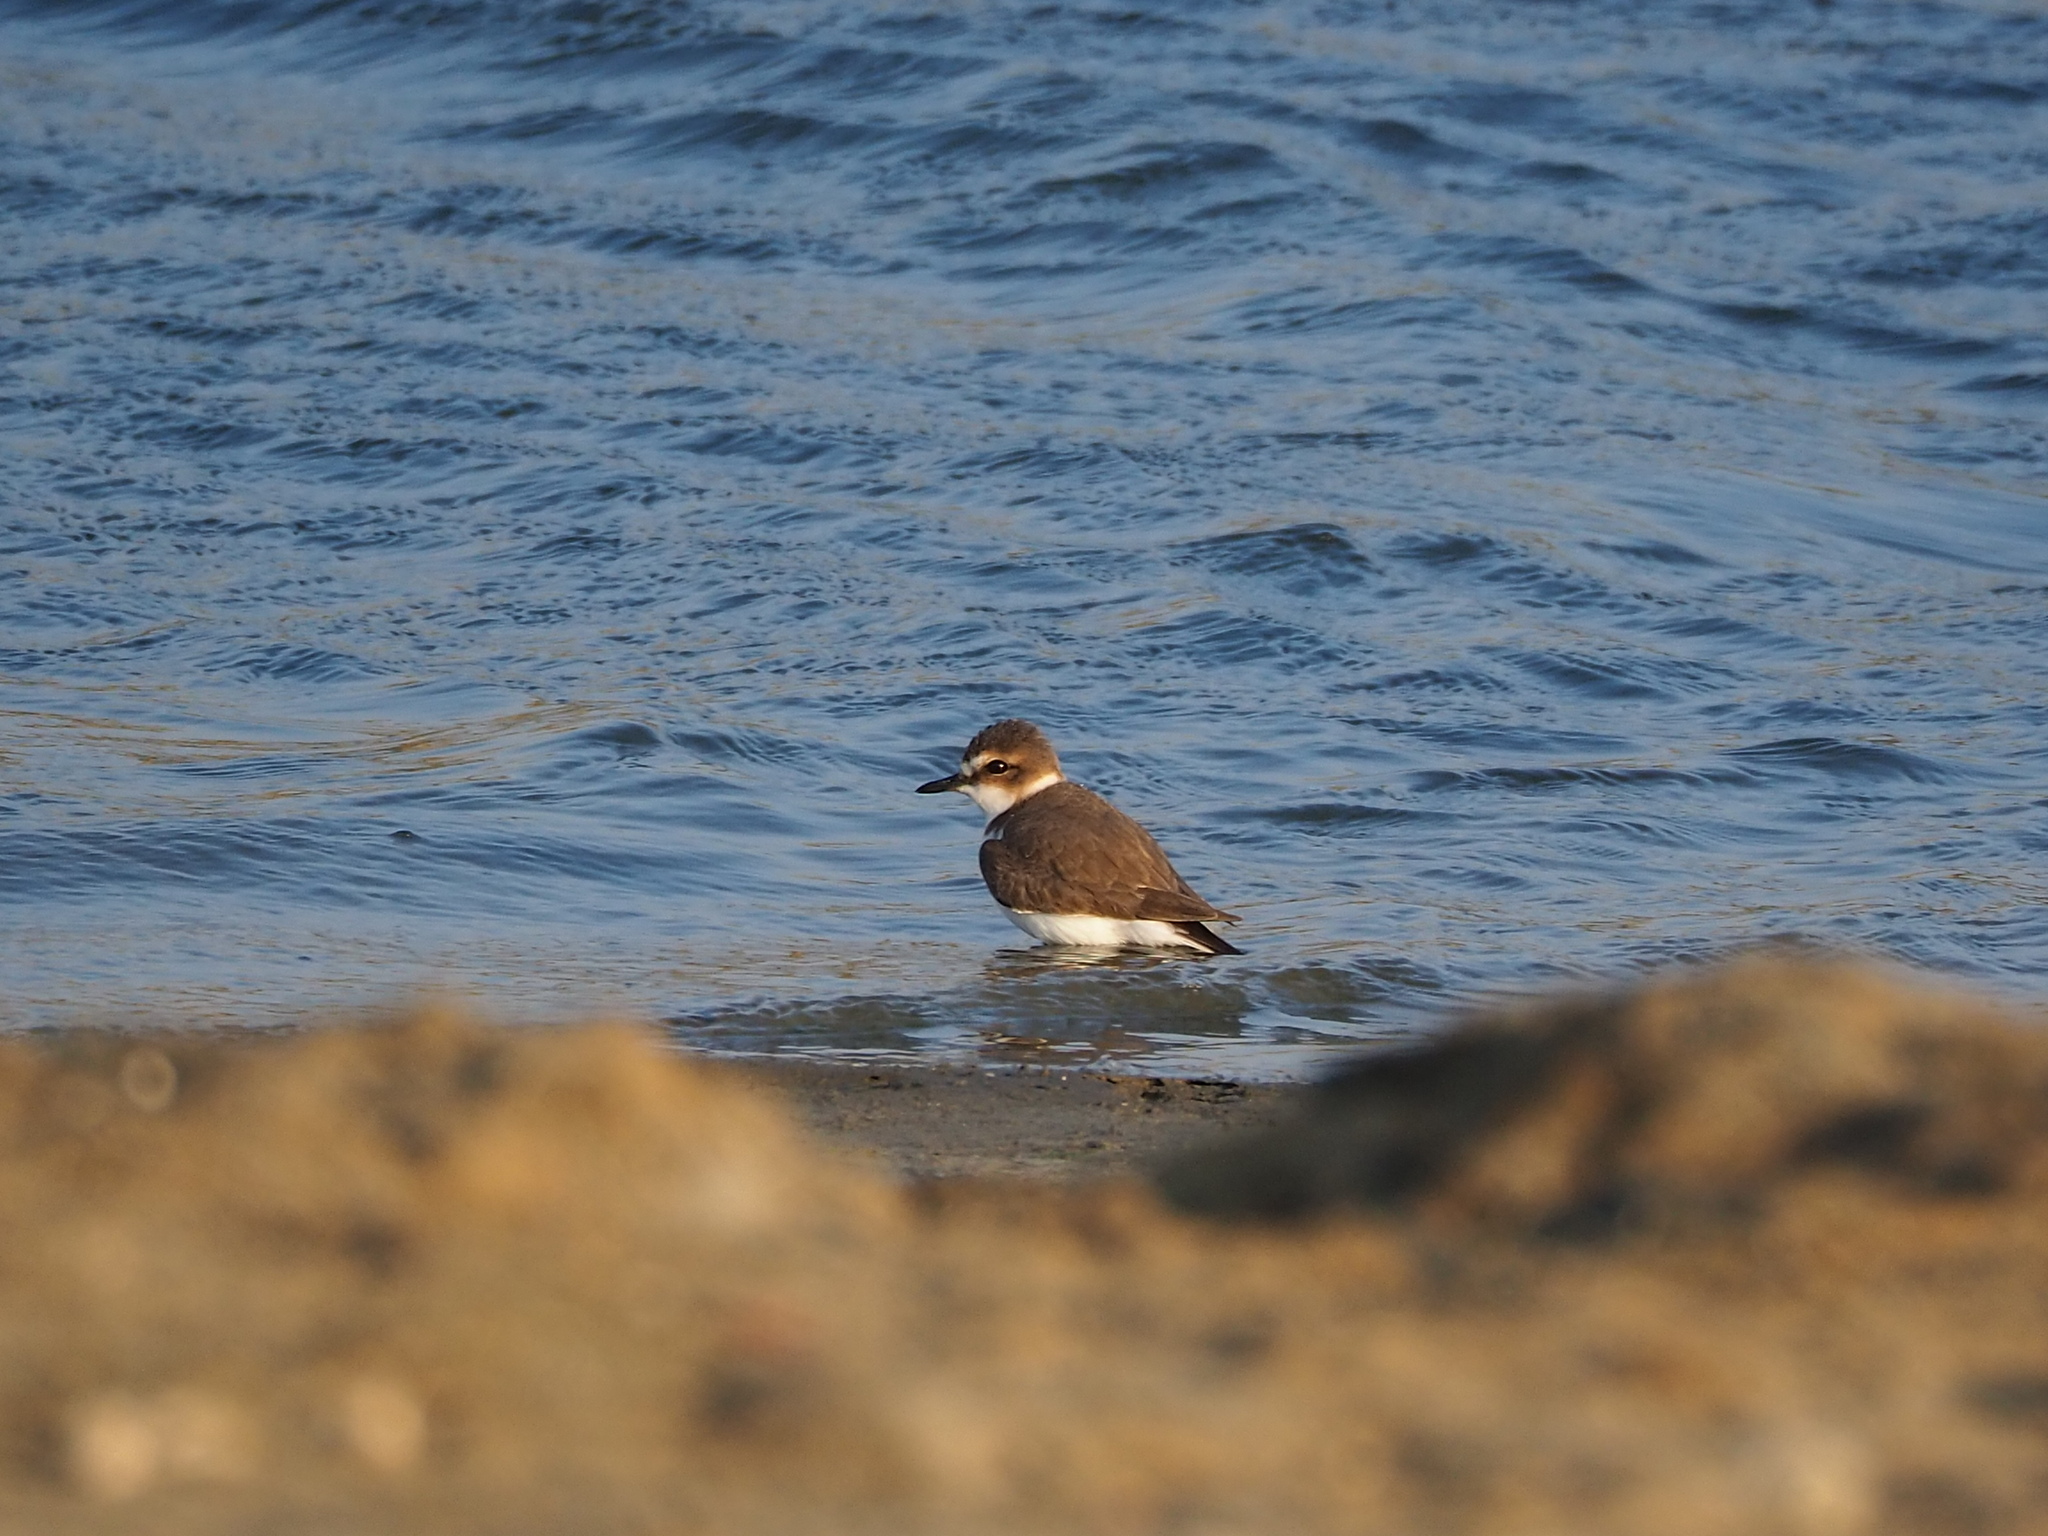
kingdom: Animalia
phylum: Chordata
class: Aves
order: Charadriiformes
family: Charadriidae
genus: Charadrius
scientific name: Charadrius alexandrinus
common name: Kentish plover
